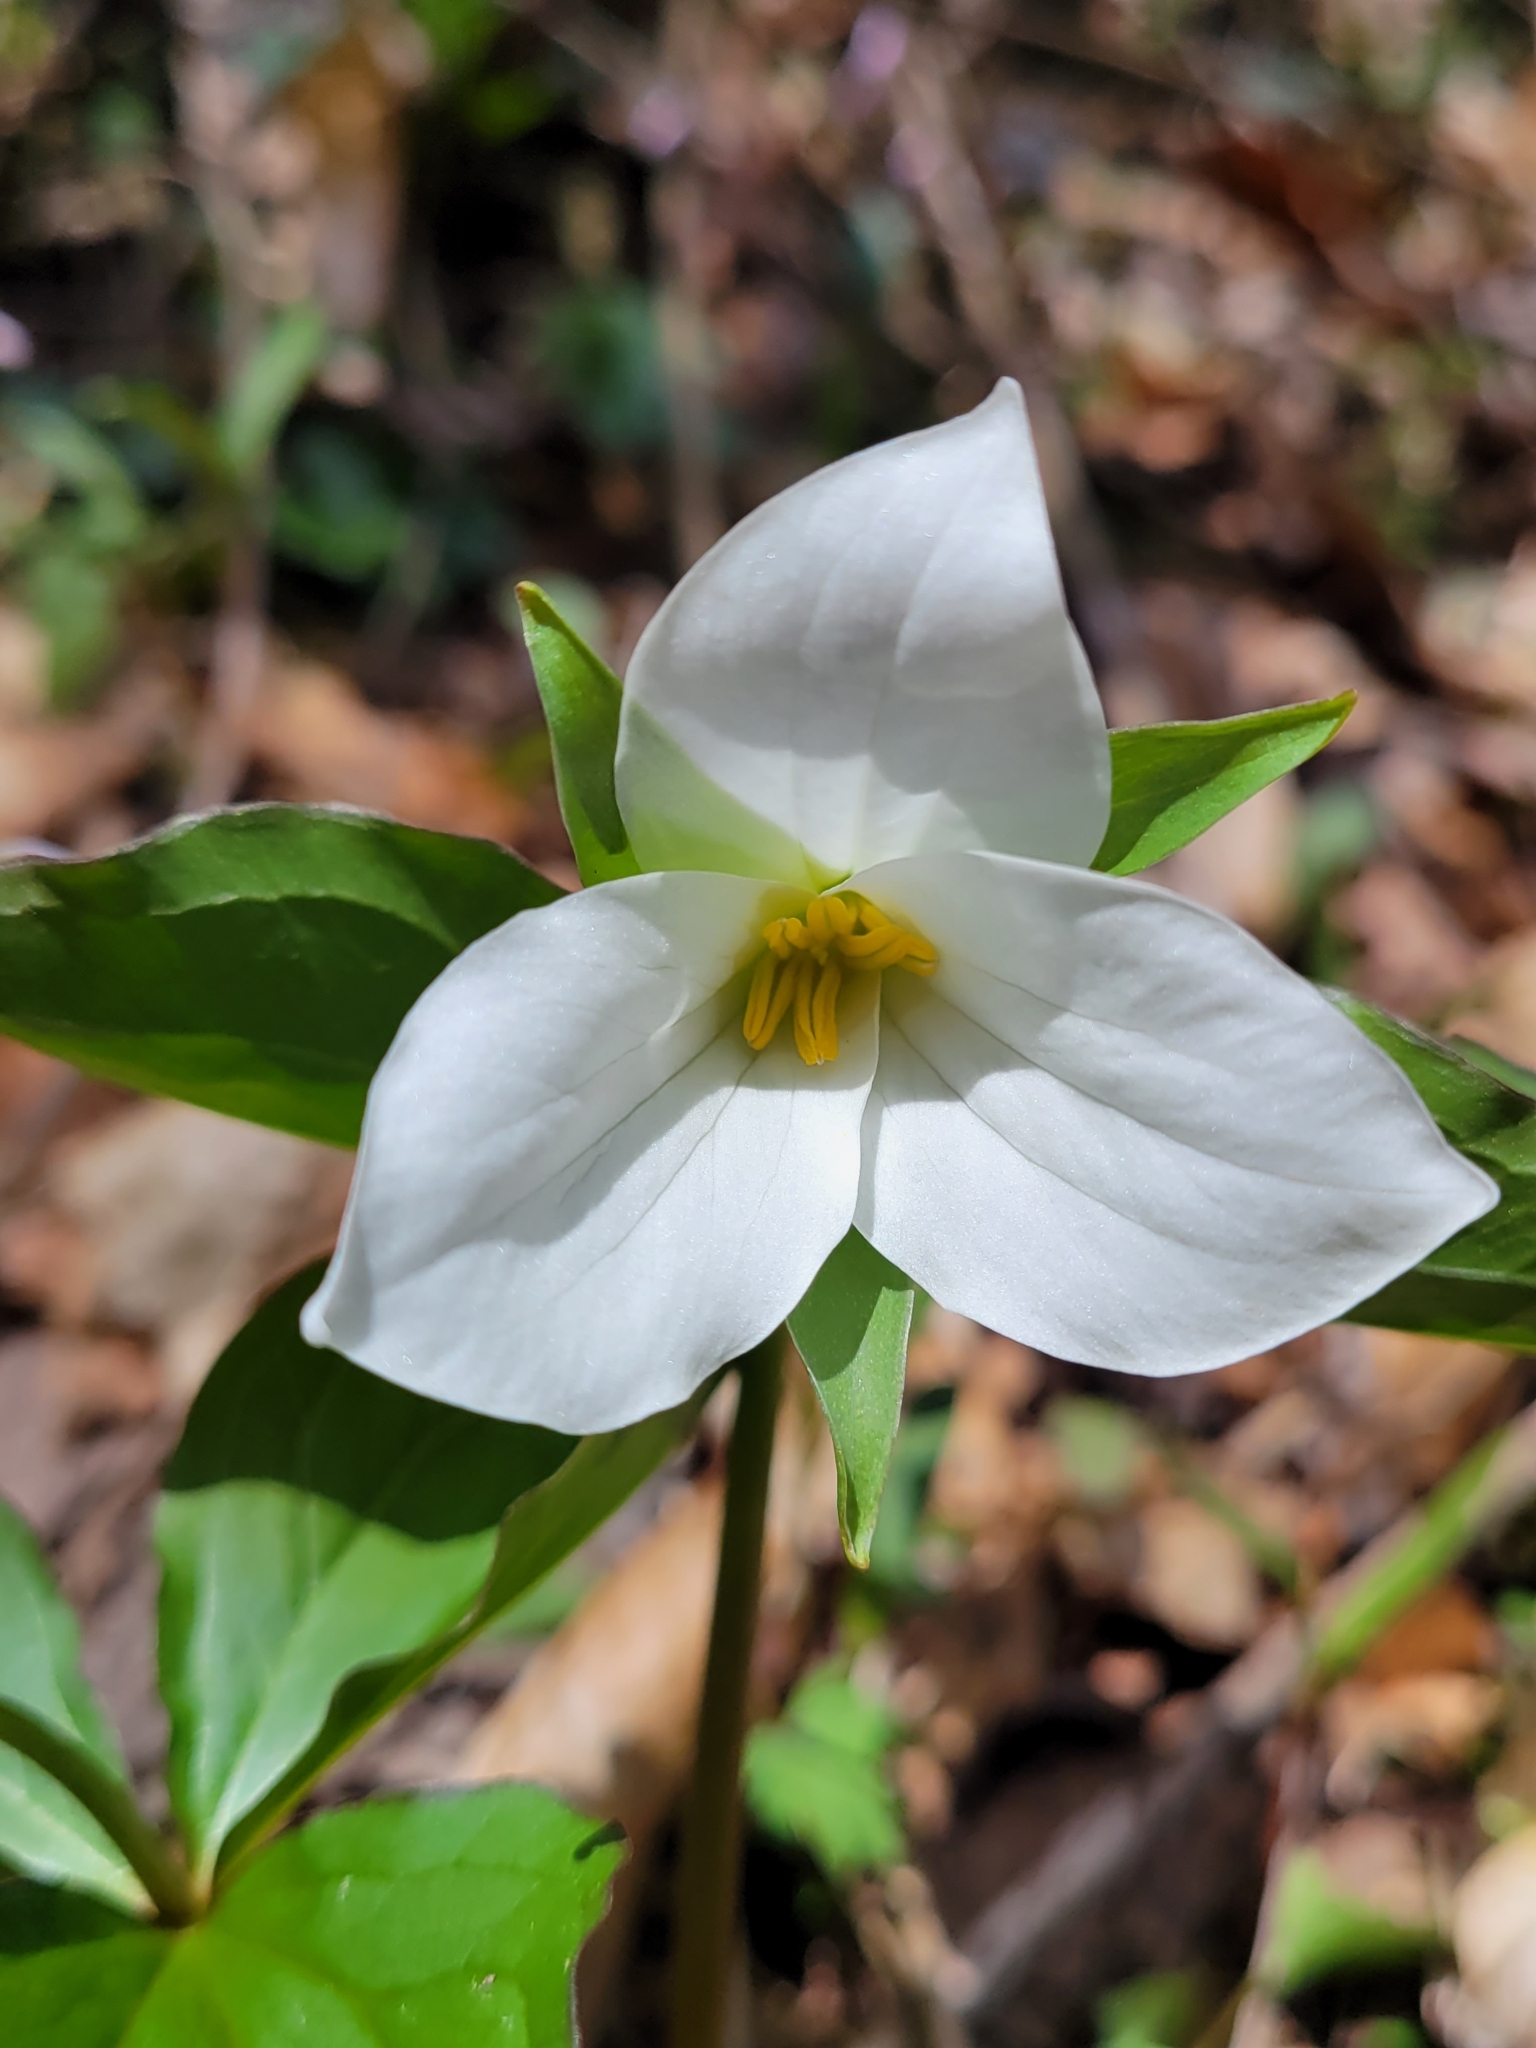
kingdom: Plantae
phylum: Tracheophyta
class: Liliopsida
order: Liliales
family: Melanthiaceae
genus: Trillium
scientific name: Trillium grandiflorum
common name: Great white trillium
